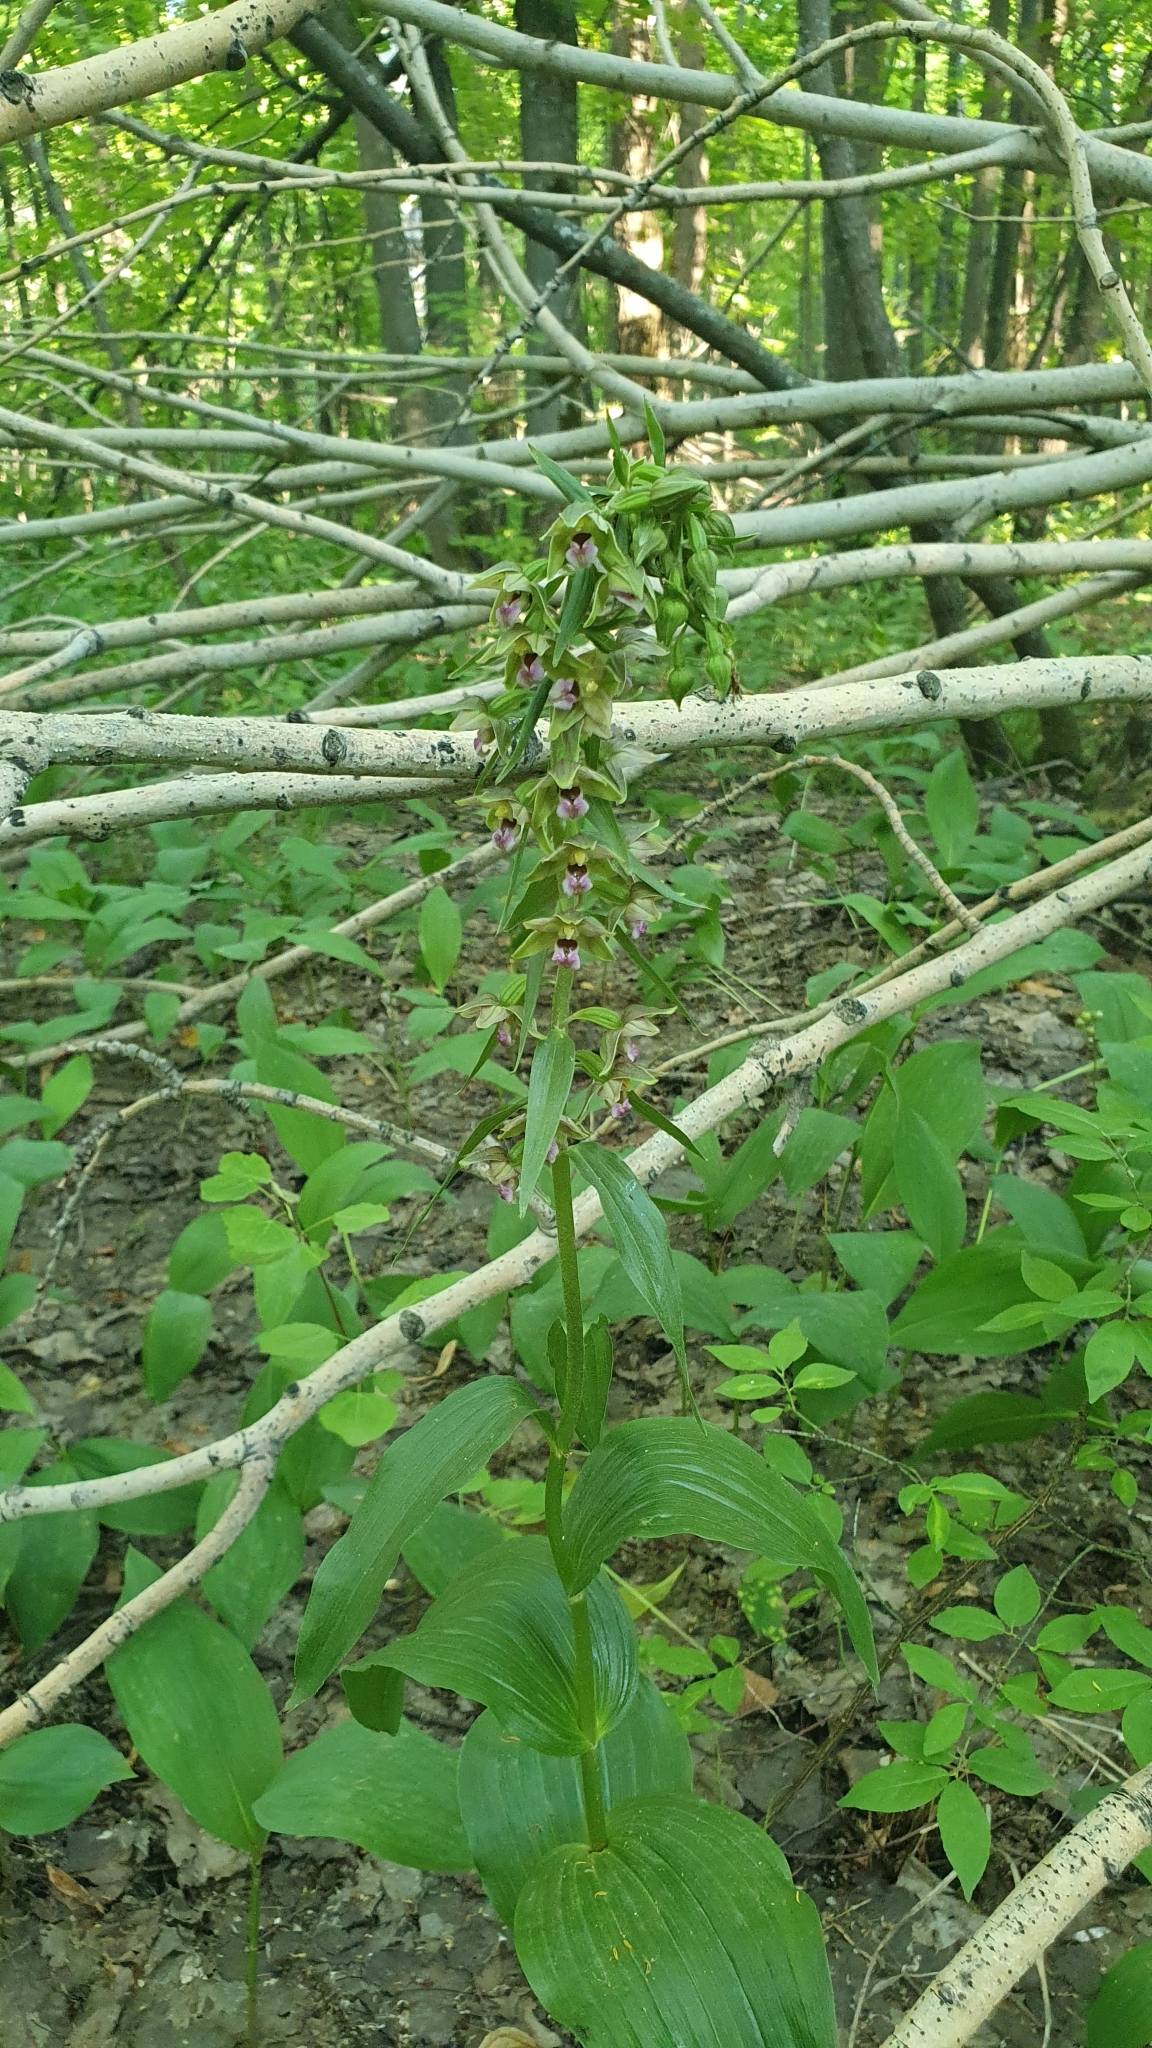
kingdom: Plantae
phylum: Tracheophyta
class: Liliopsida
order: Asparagales
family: Orchidaceae
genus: Epipactis
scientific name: Epipactis helleborine
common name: Broad-leaved helleborine
